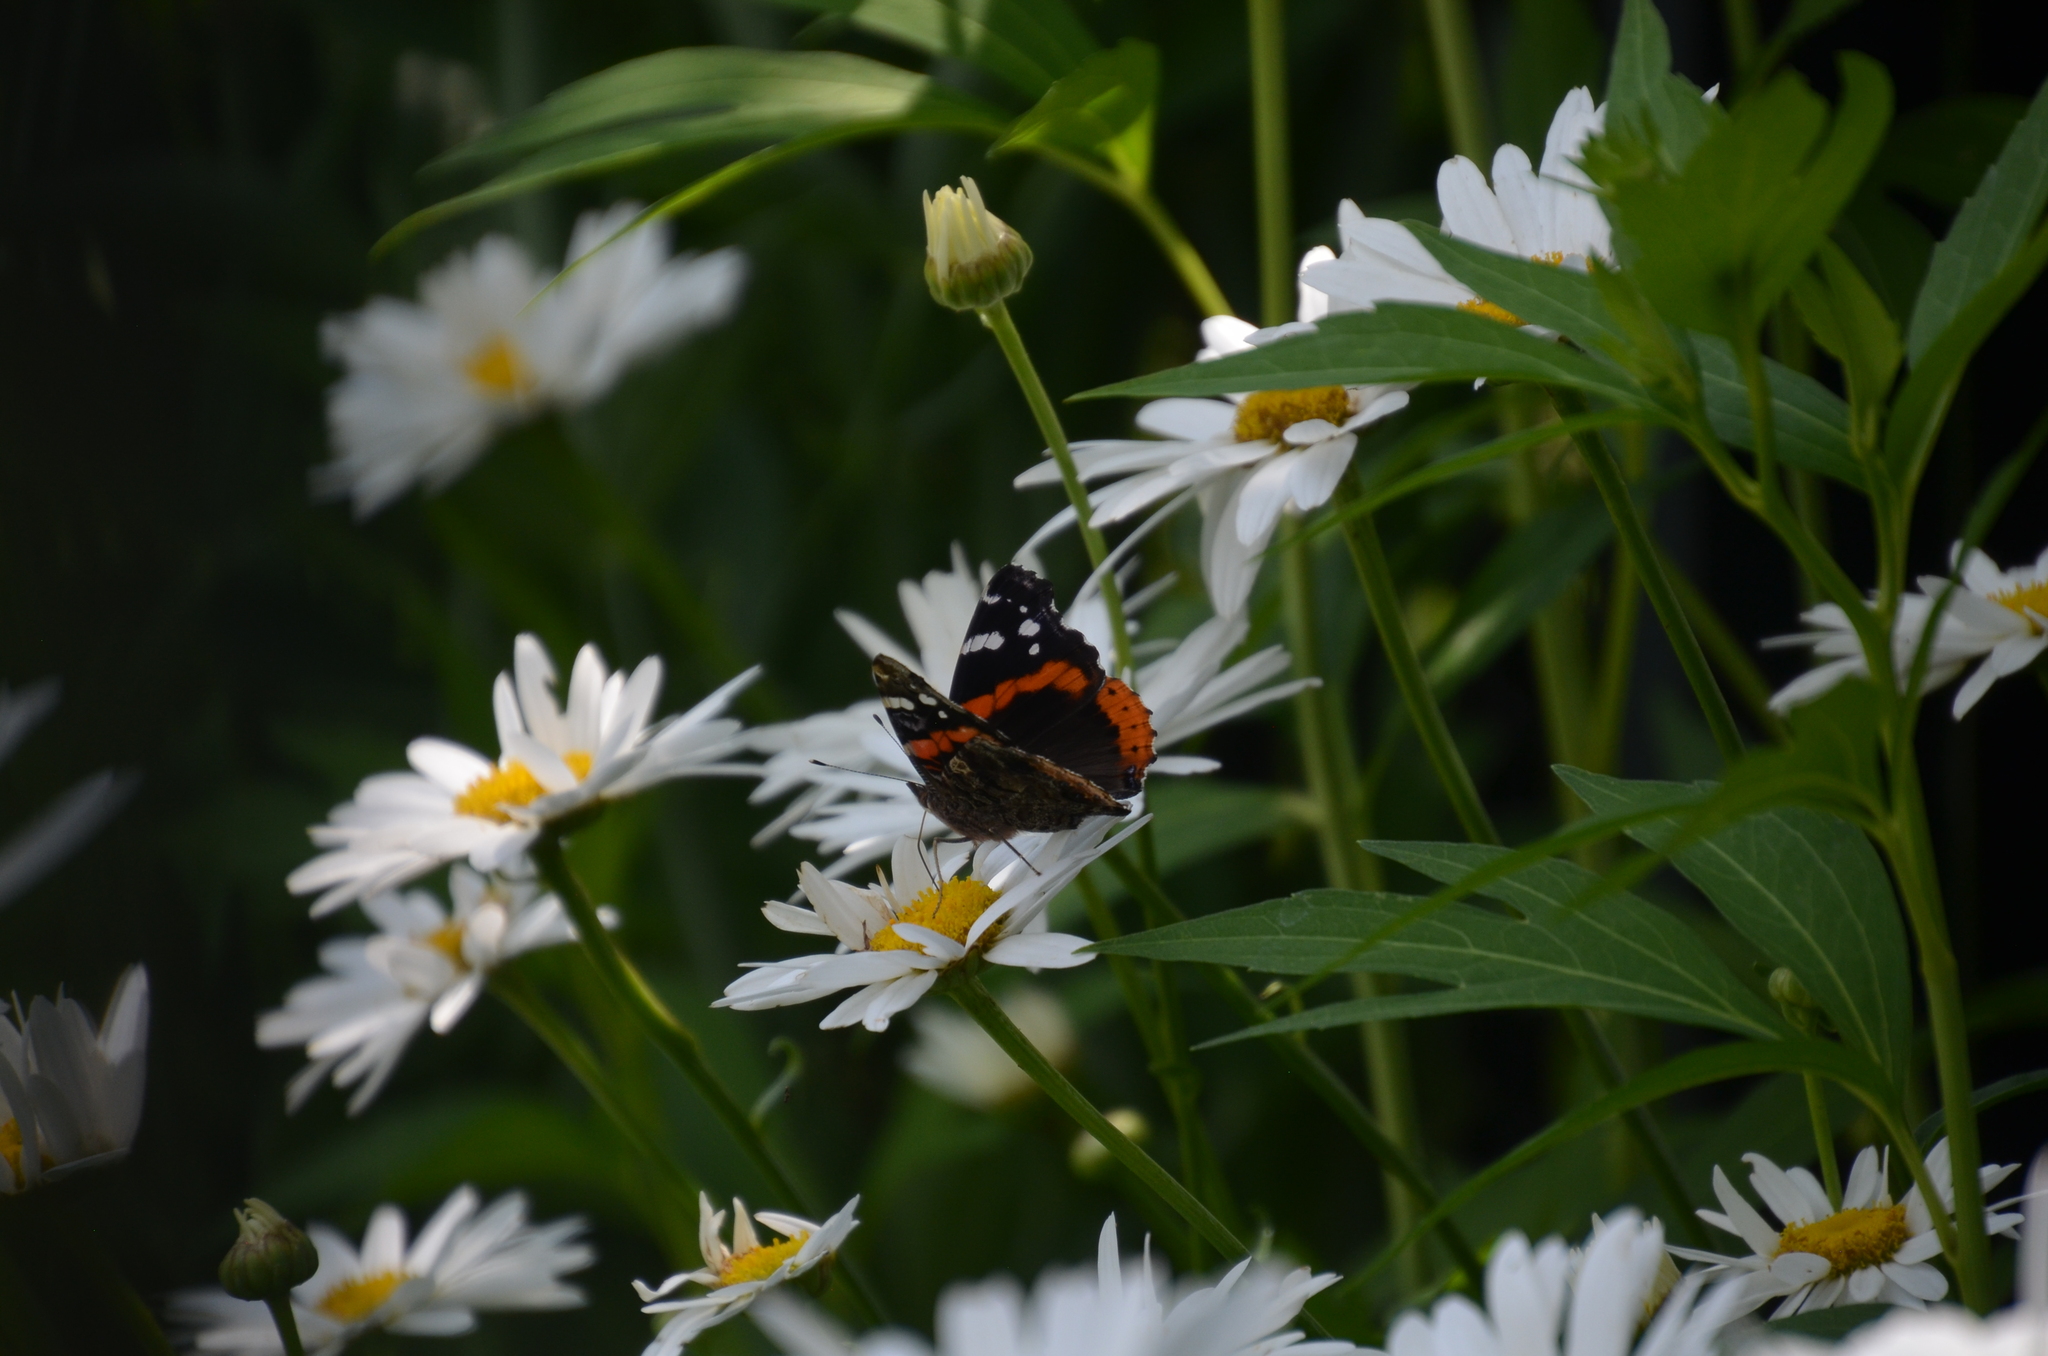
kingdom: Animalia
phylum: Arthropoda
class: Insecta
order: Lepidoptera
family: Nymphalidae
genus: Vanessa
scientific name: Vanessa atalanta
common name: Red admiral
